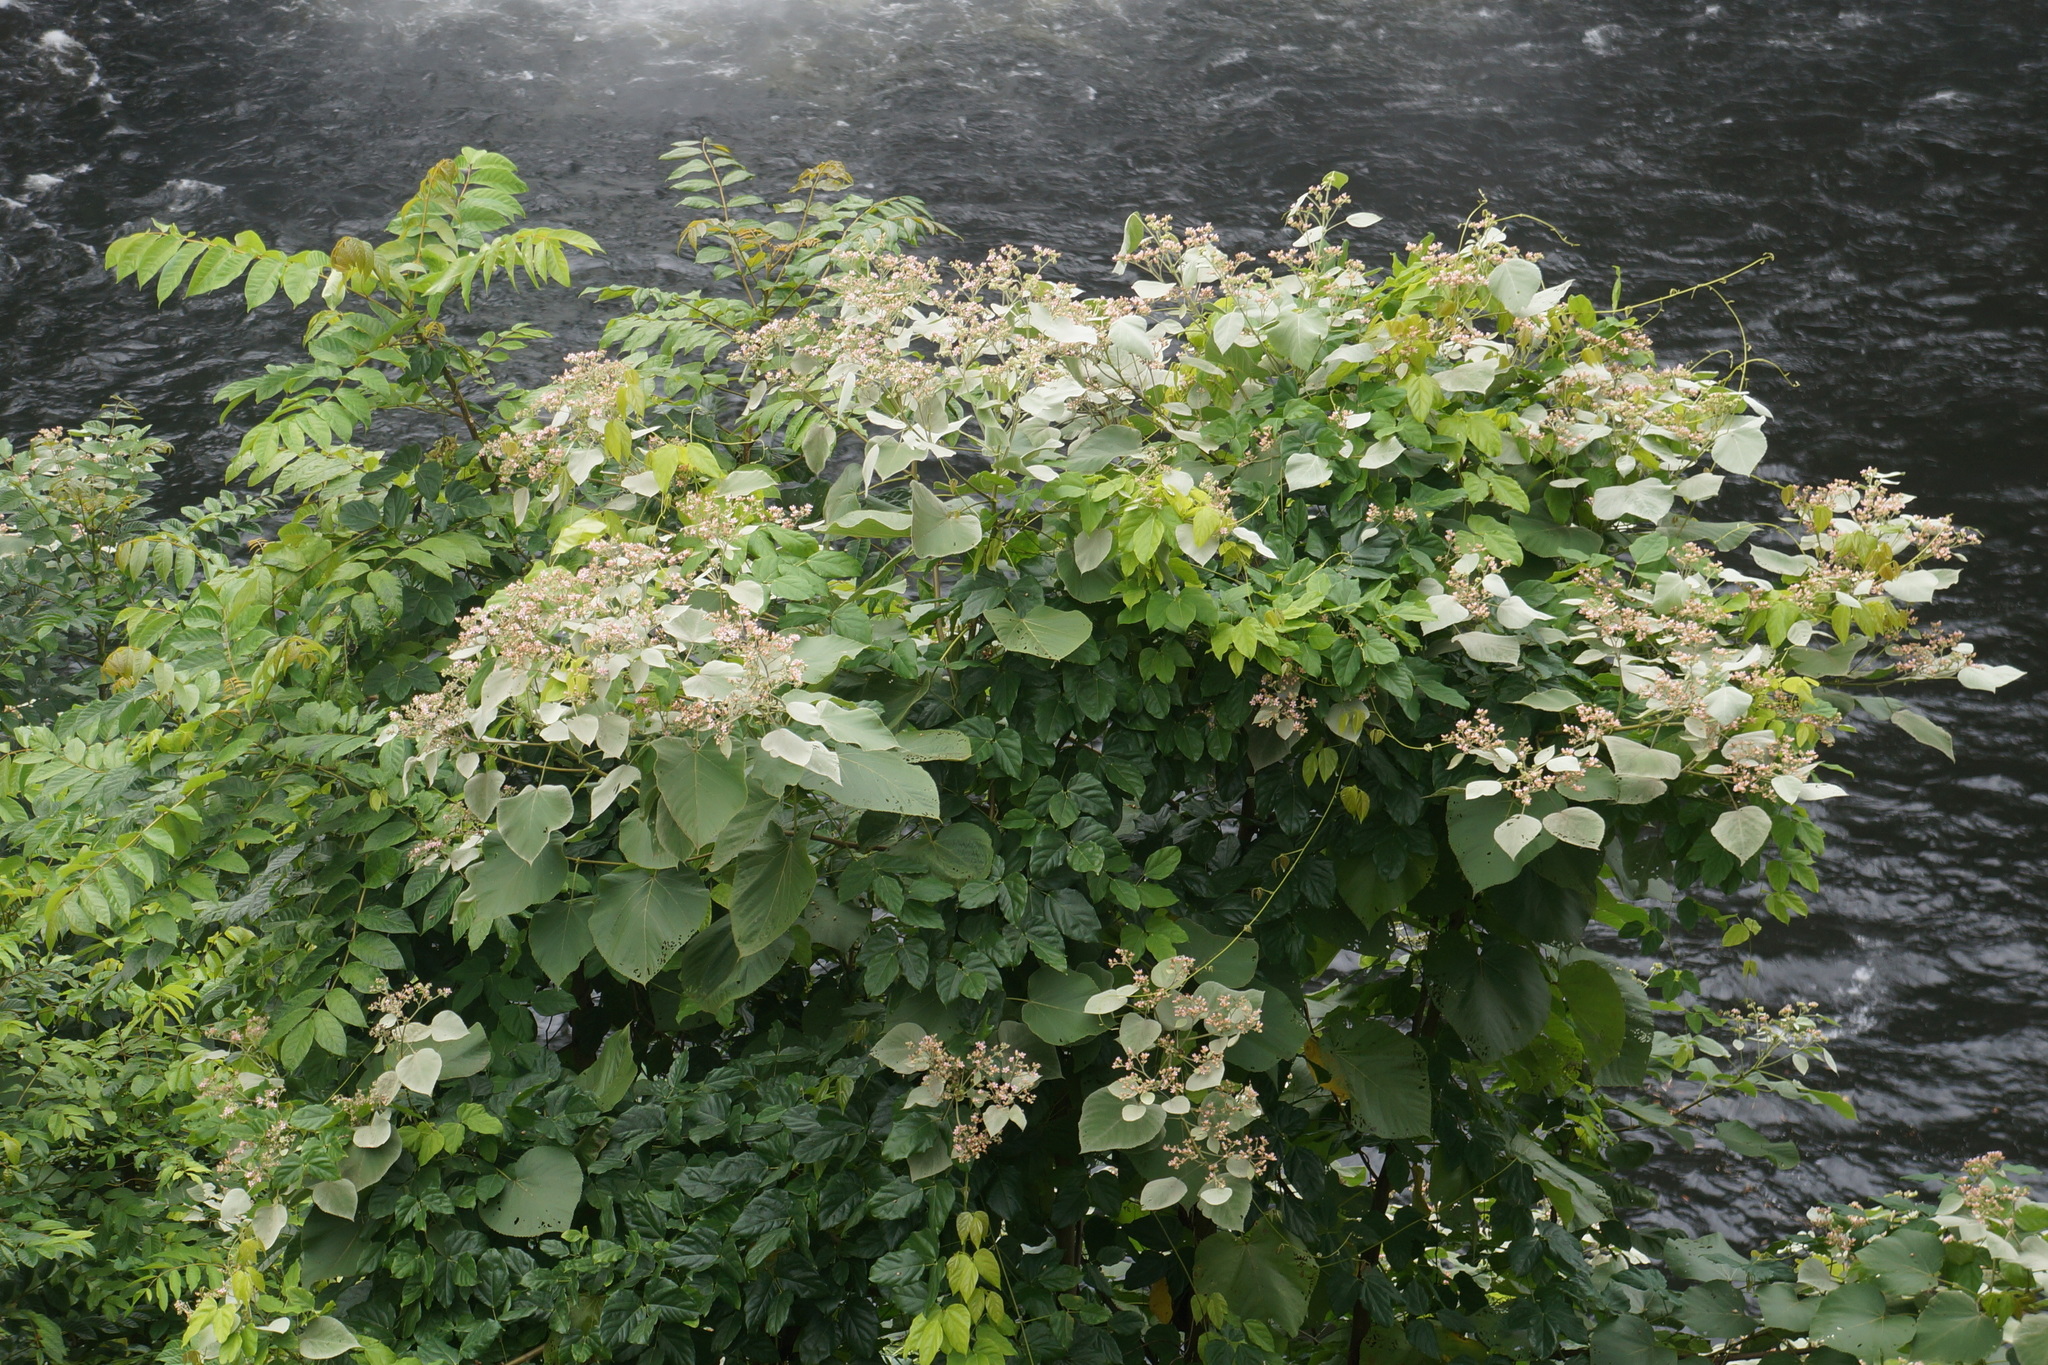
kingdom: Plantae
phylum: Tracheophyta
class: Magnoliopsida
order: Malvales
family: Malvaceae
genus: Melochia
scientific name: Melochia umbellata
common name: Gunpowder tree
